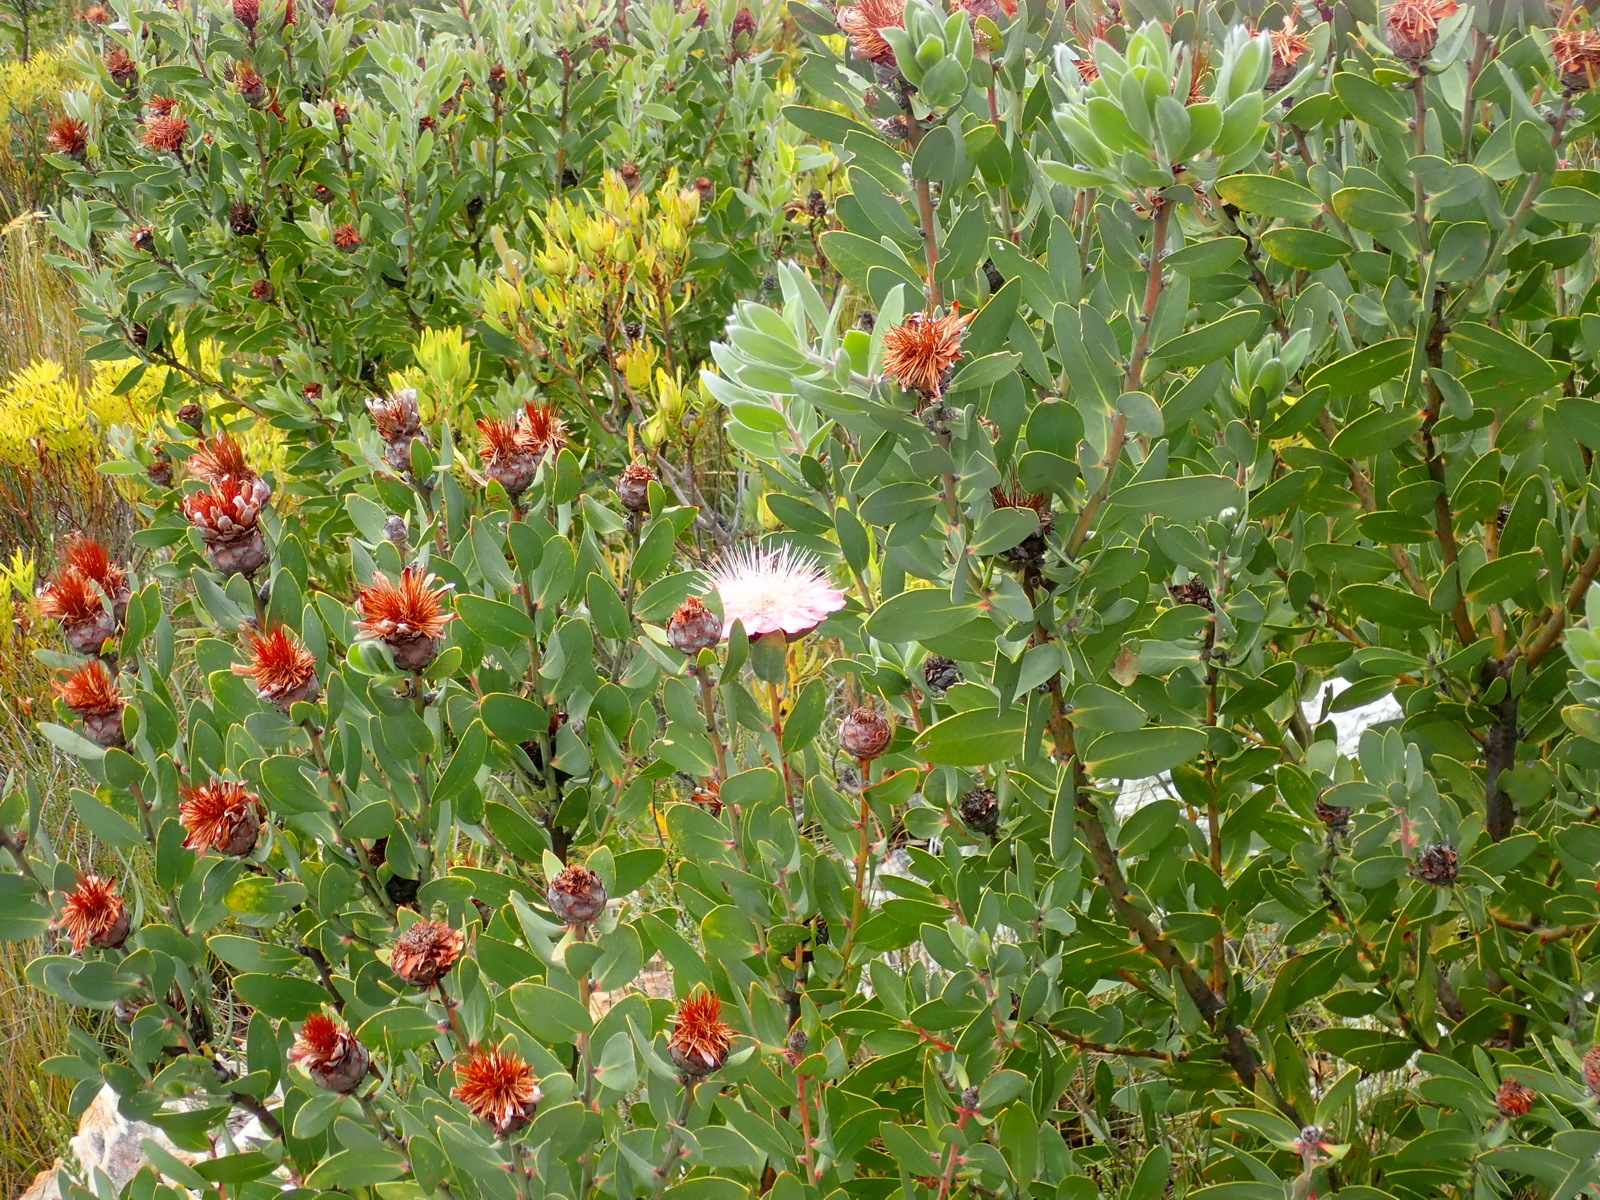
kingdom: Plantae
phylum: Tracheophyta
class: Magnoliopsida
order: Proteales
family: Proteaceae
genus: Protea
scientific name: Protea punctata
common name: Water sugarbush
